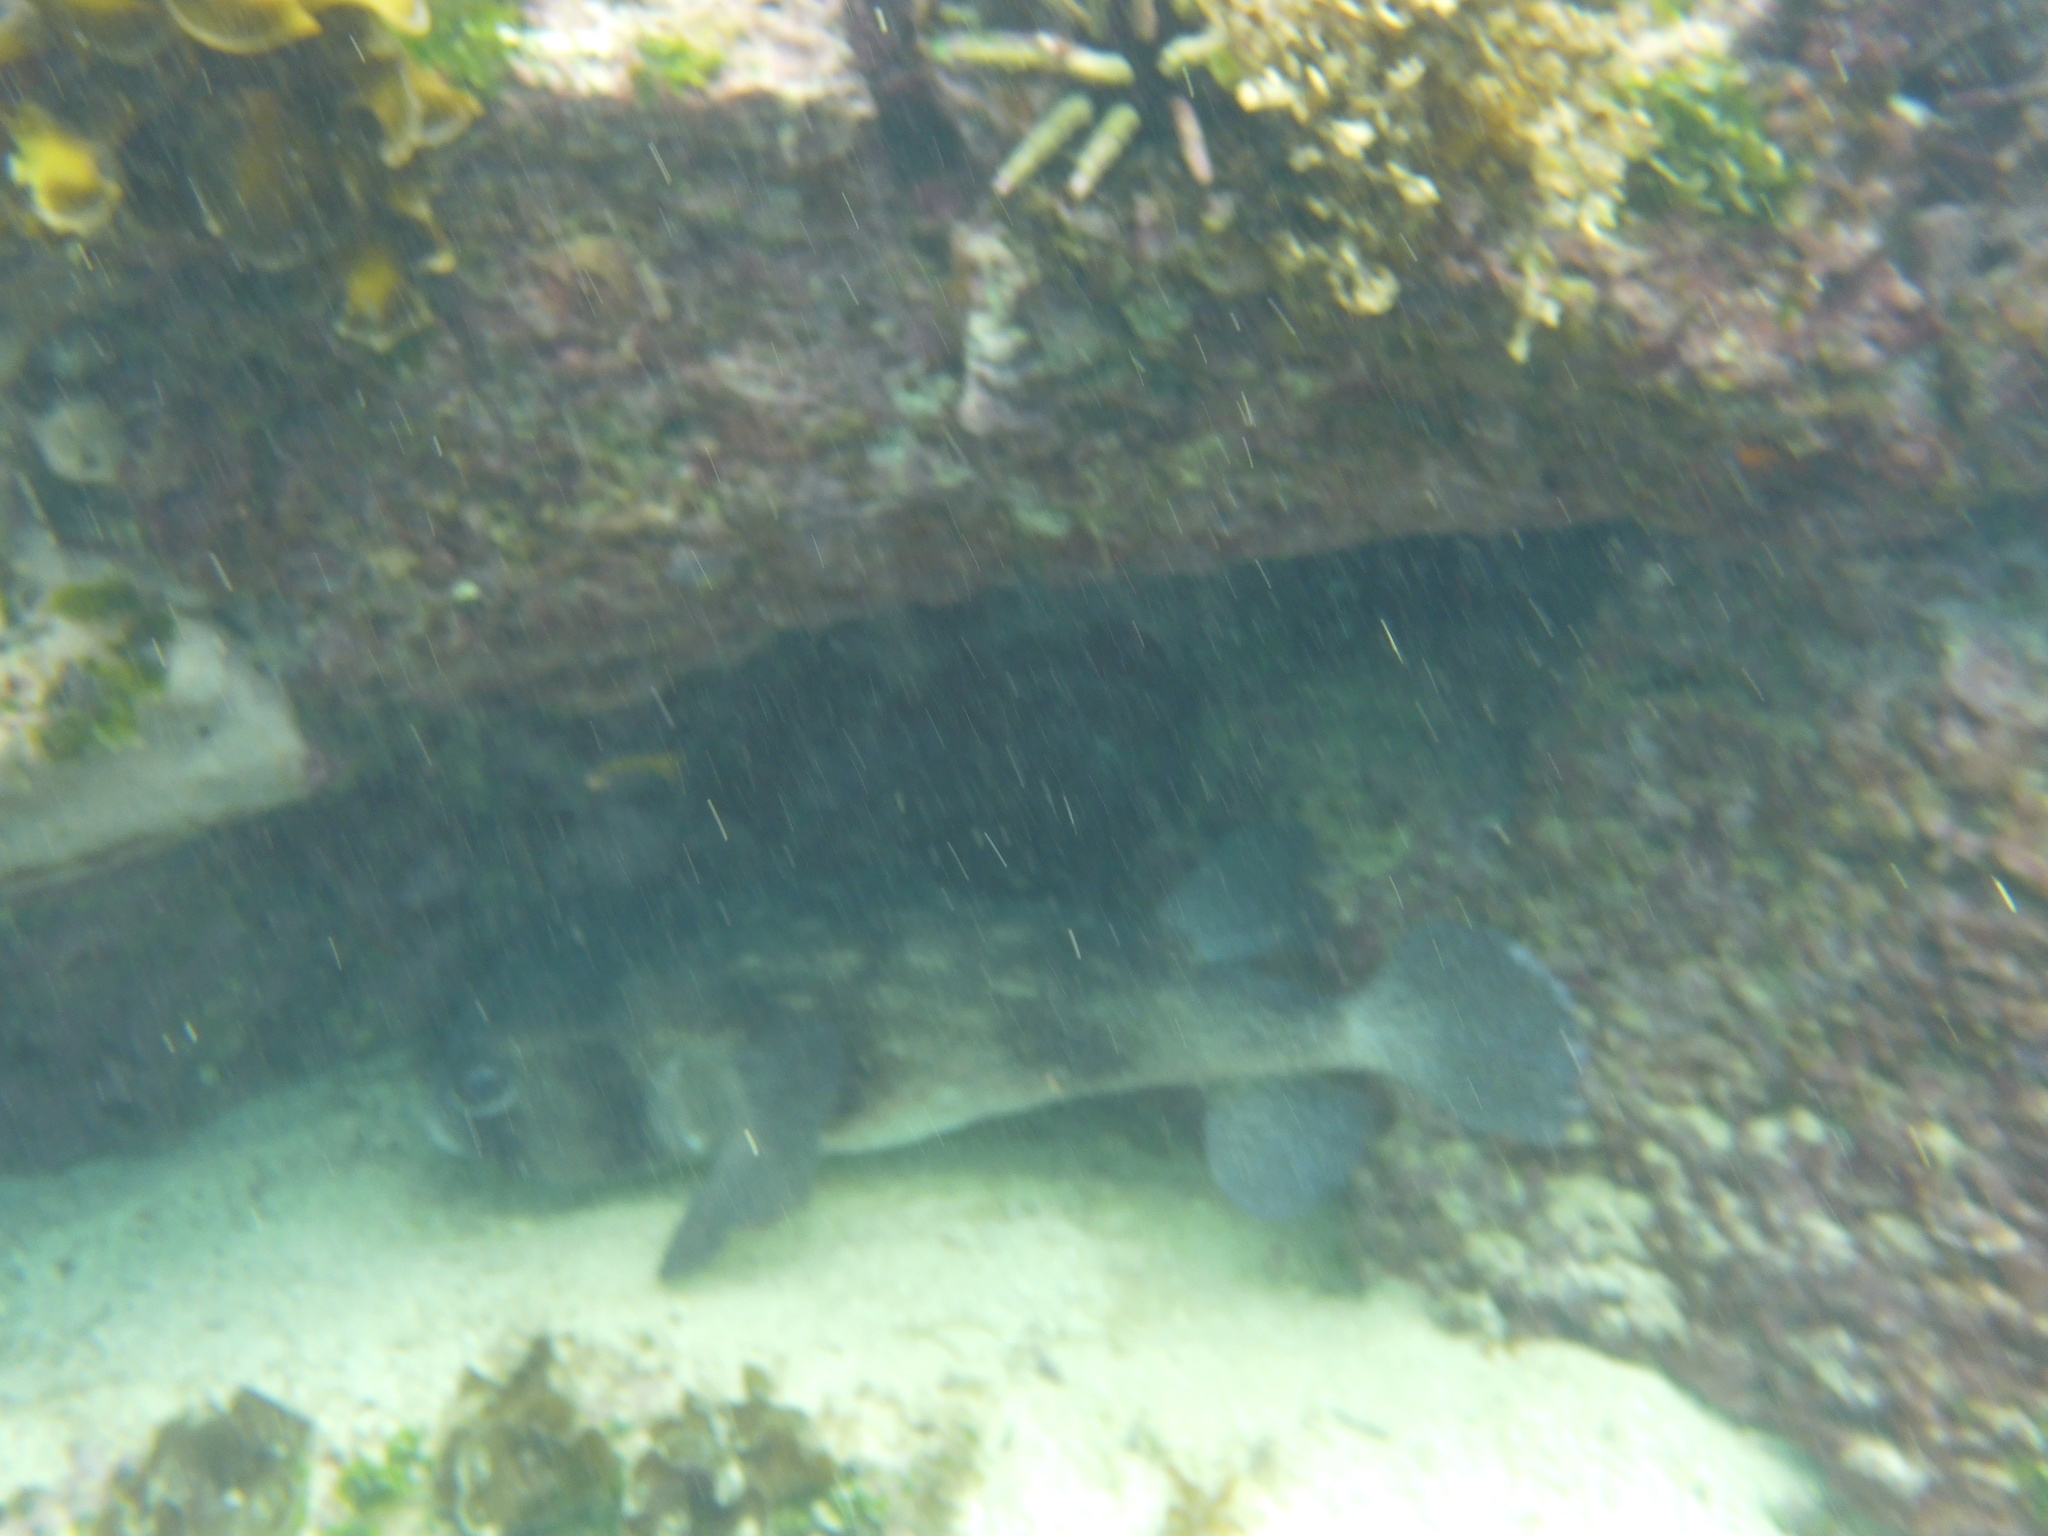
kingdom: Animalia
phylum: Chordata
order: Tetraodontiformes
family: Diodontidae
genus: Chilomycterus
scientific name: Chilomycterus reticulatus
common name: Spotfin burrfish
